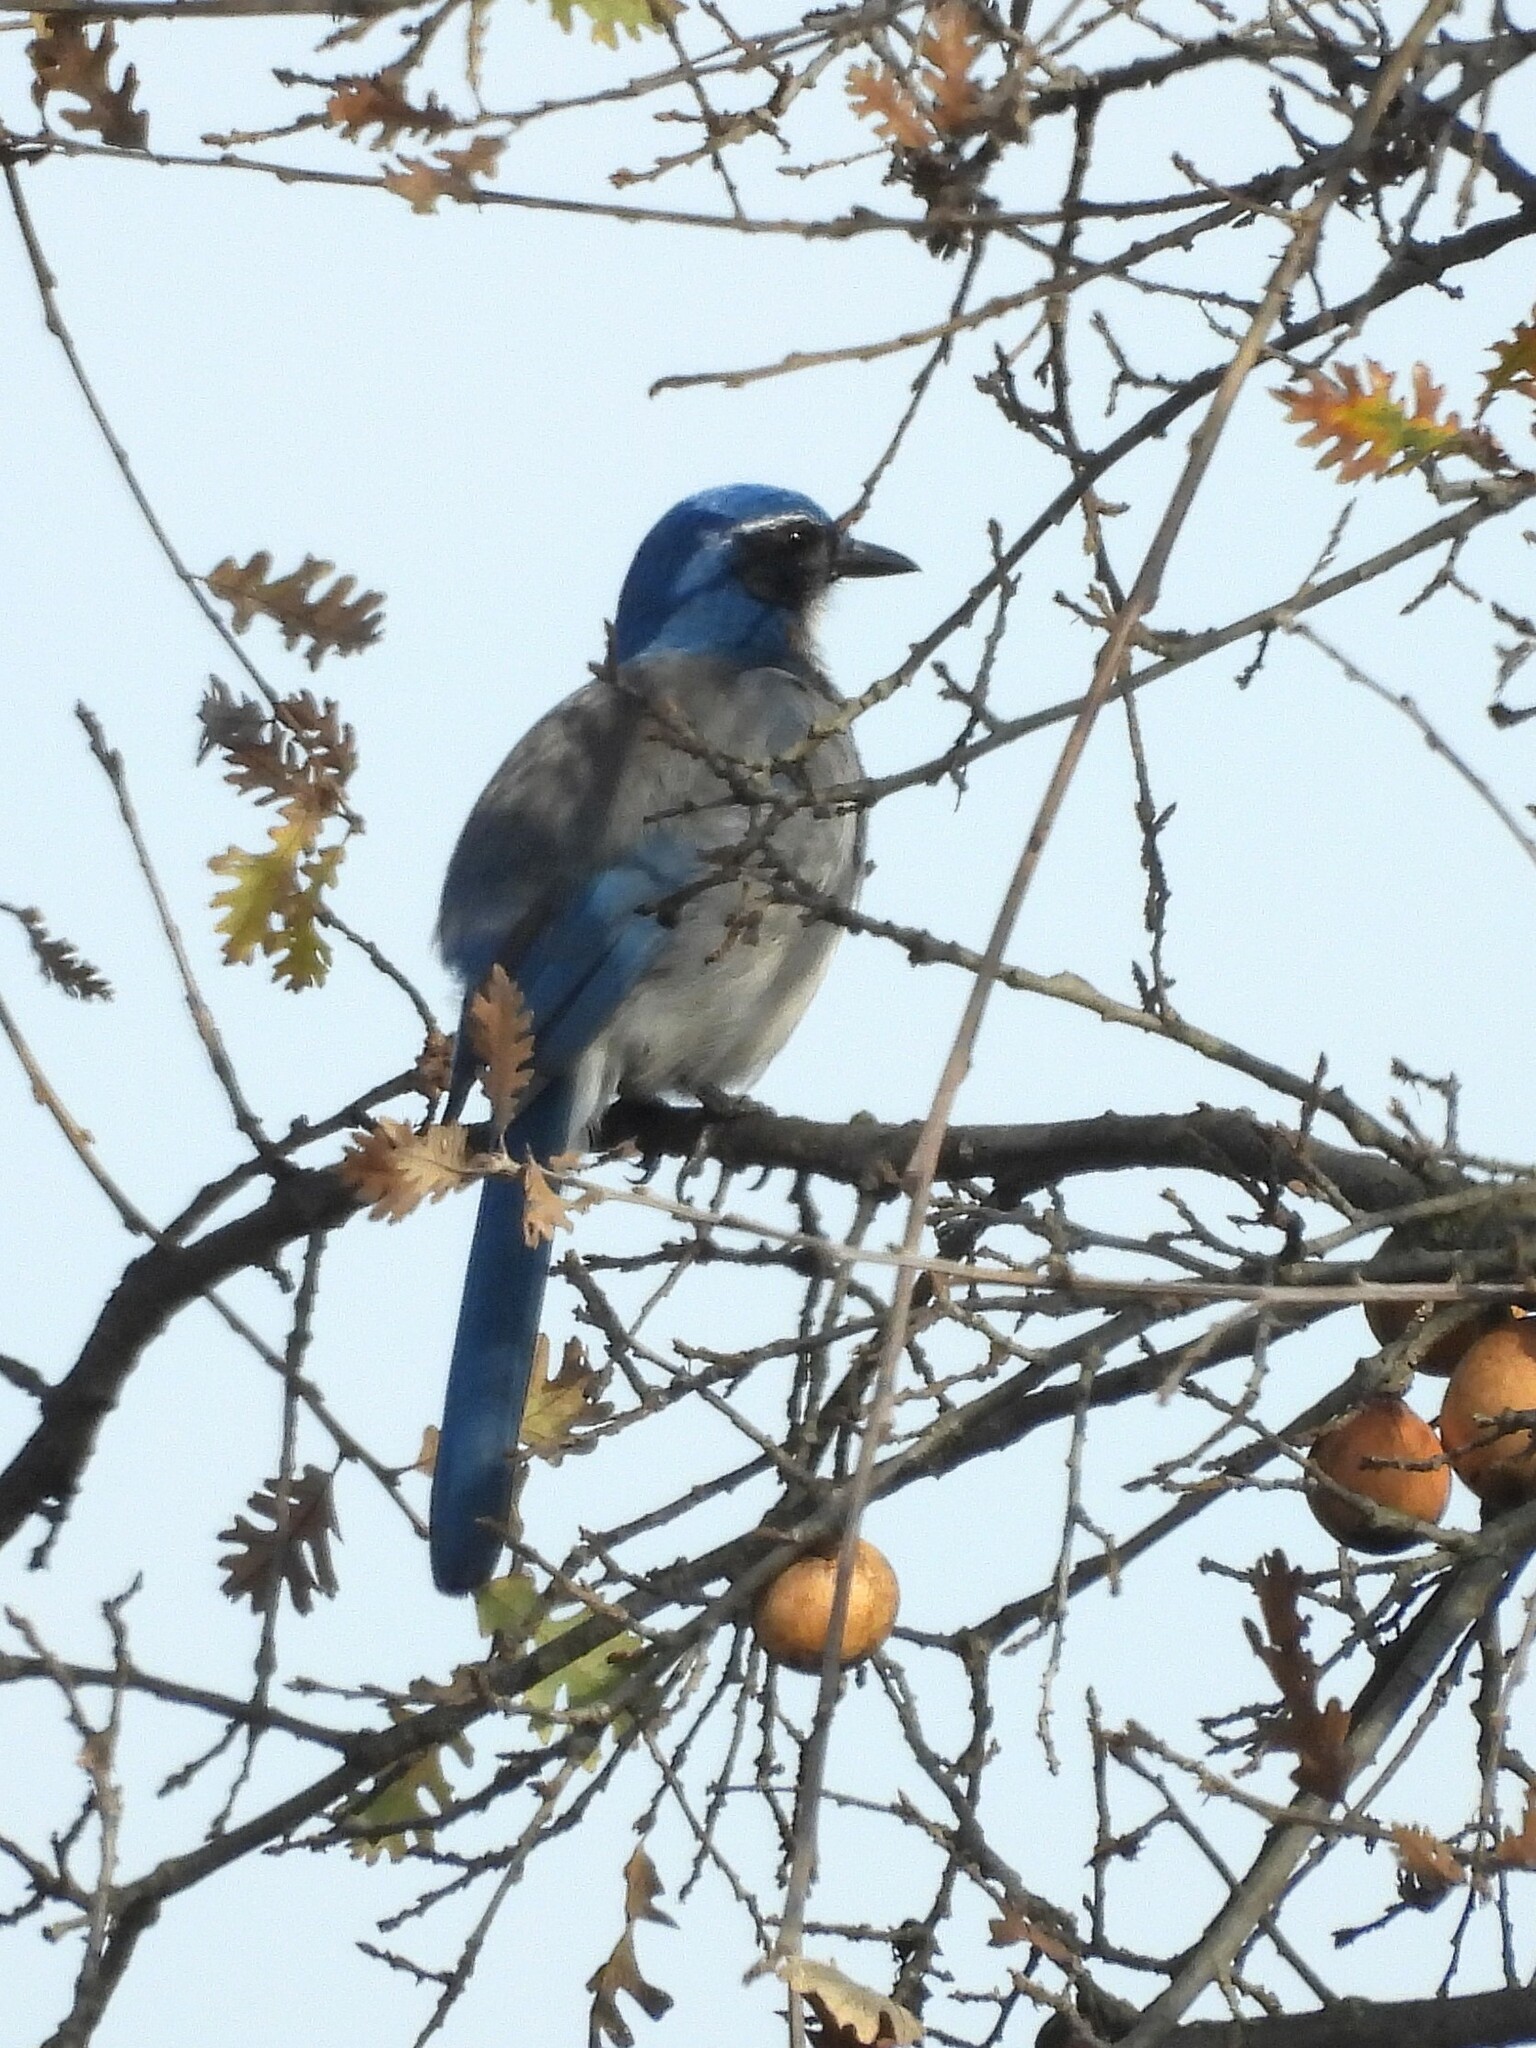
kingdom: Animalia
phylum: Chordata
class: Aves
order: Passeriformes
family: Corvidae
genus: Aphelocoma
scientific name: Aphelocoma californica
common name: California scrub-jay
